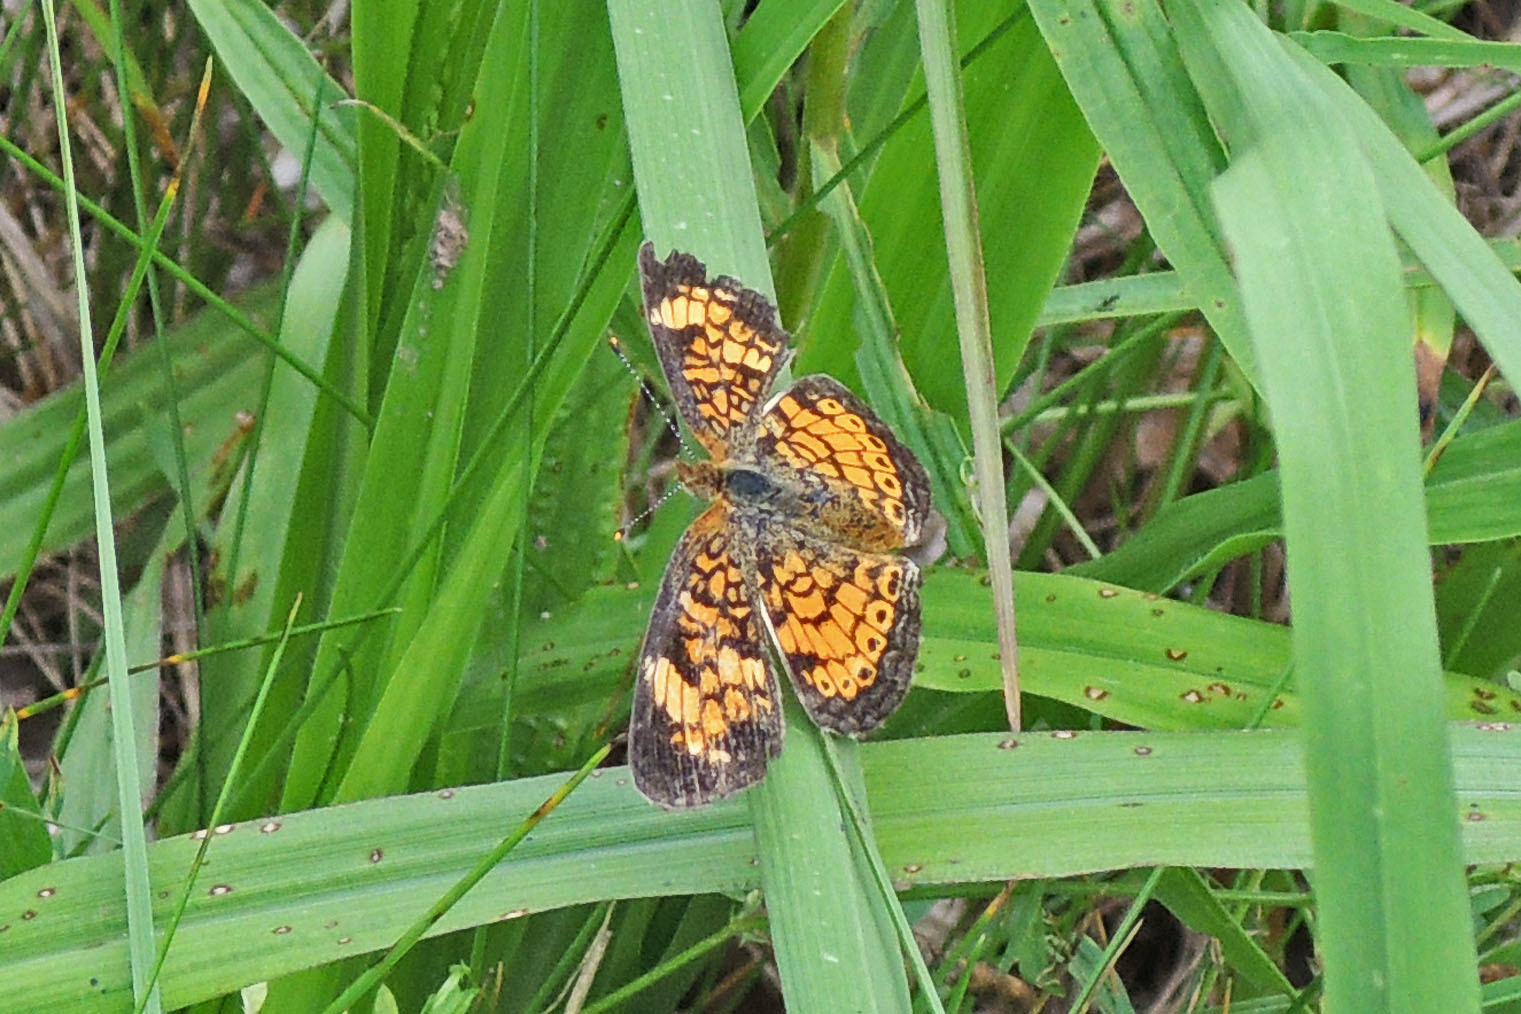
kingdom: Animalia
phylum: Arthropoda
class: Insecta
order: Lepidoptera
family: Nymphalidae
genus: Phyciodes
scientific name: Phyciodes tharos
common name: Pearl crescent
